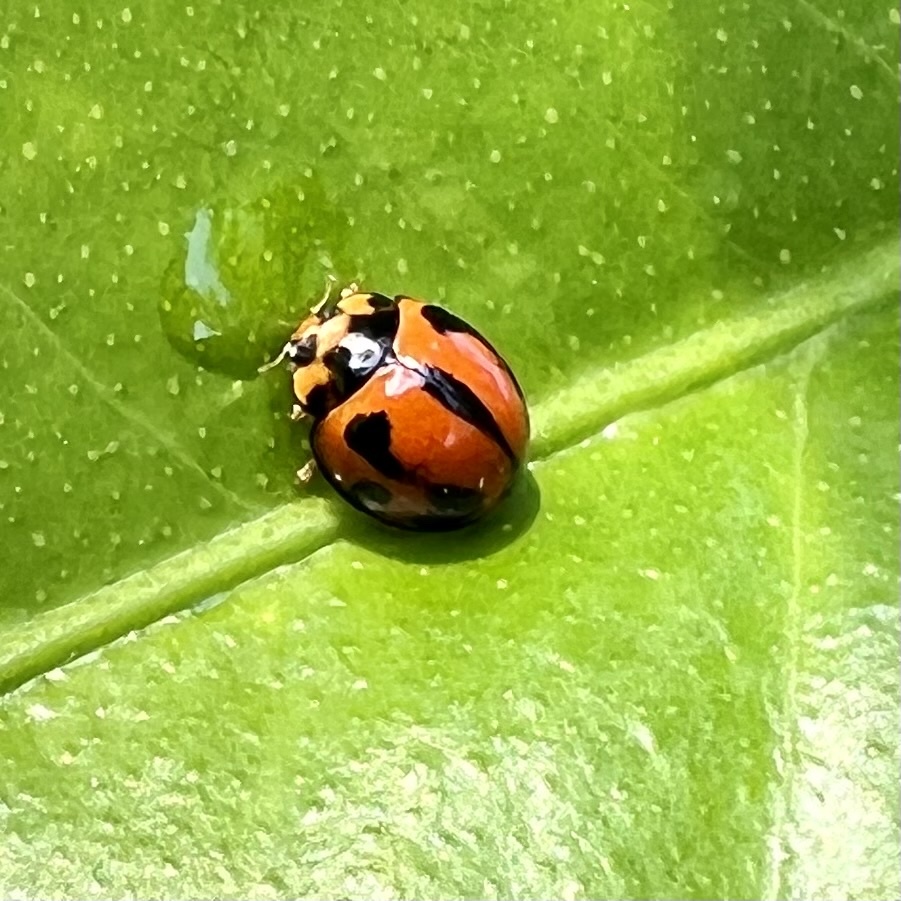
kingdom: Animalia
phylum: Arthropoda
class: Insecta
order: Coleoptera
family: Coccinellidae
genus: Coelophora
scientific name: Coelophora inaequalis
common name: Common australian lady beetle
